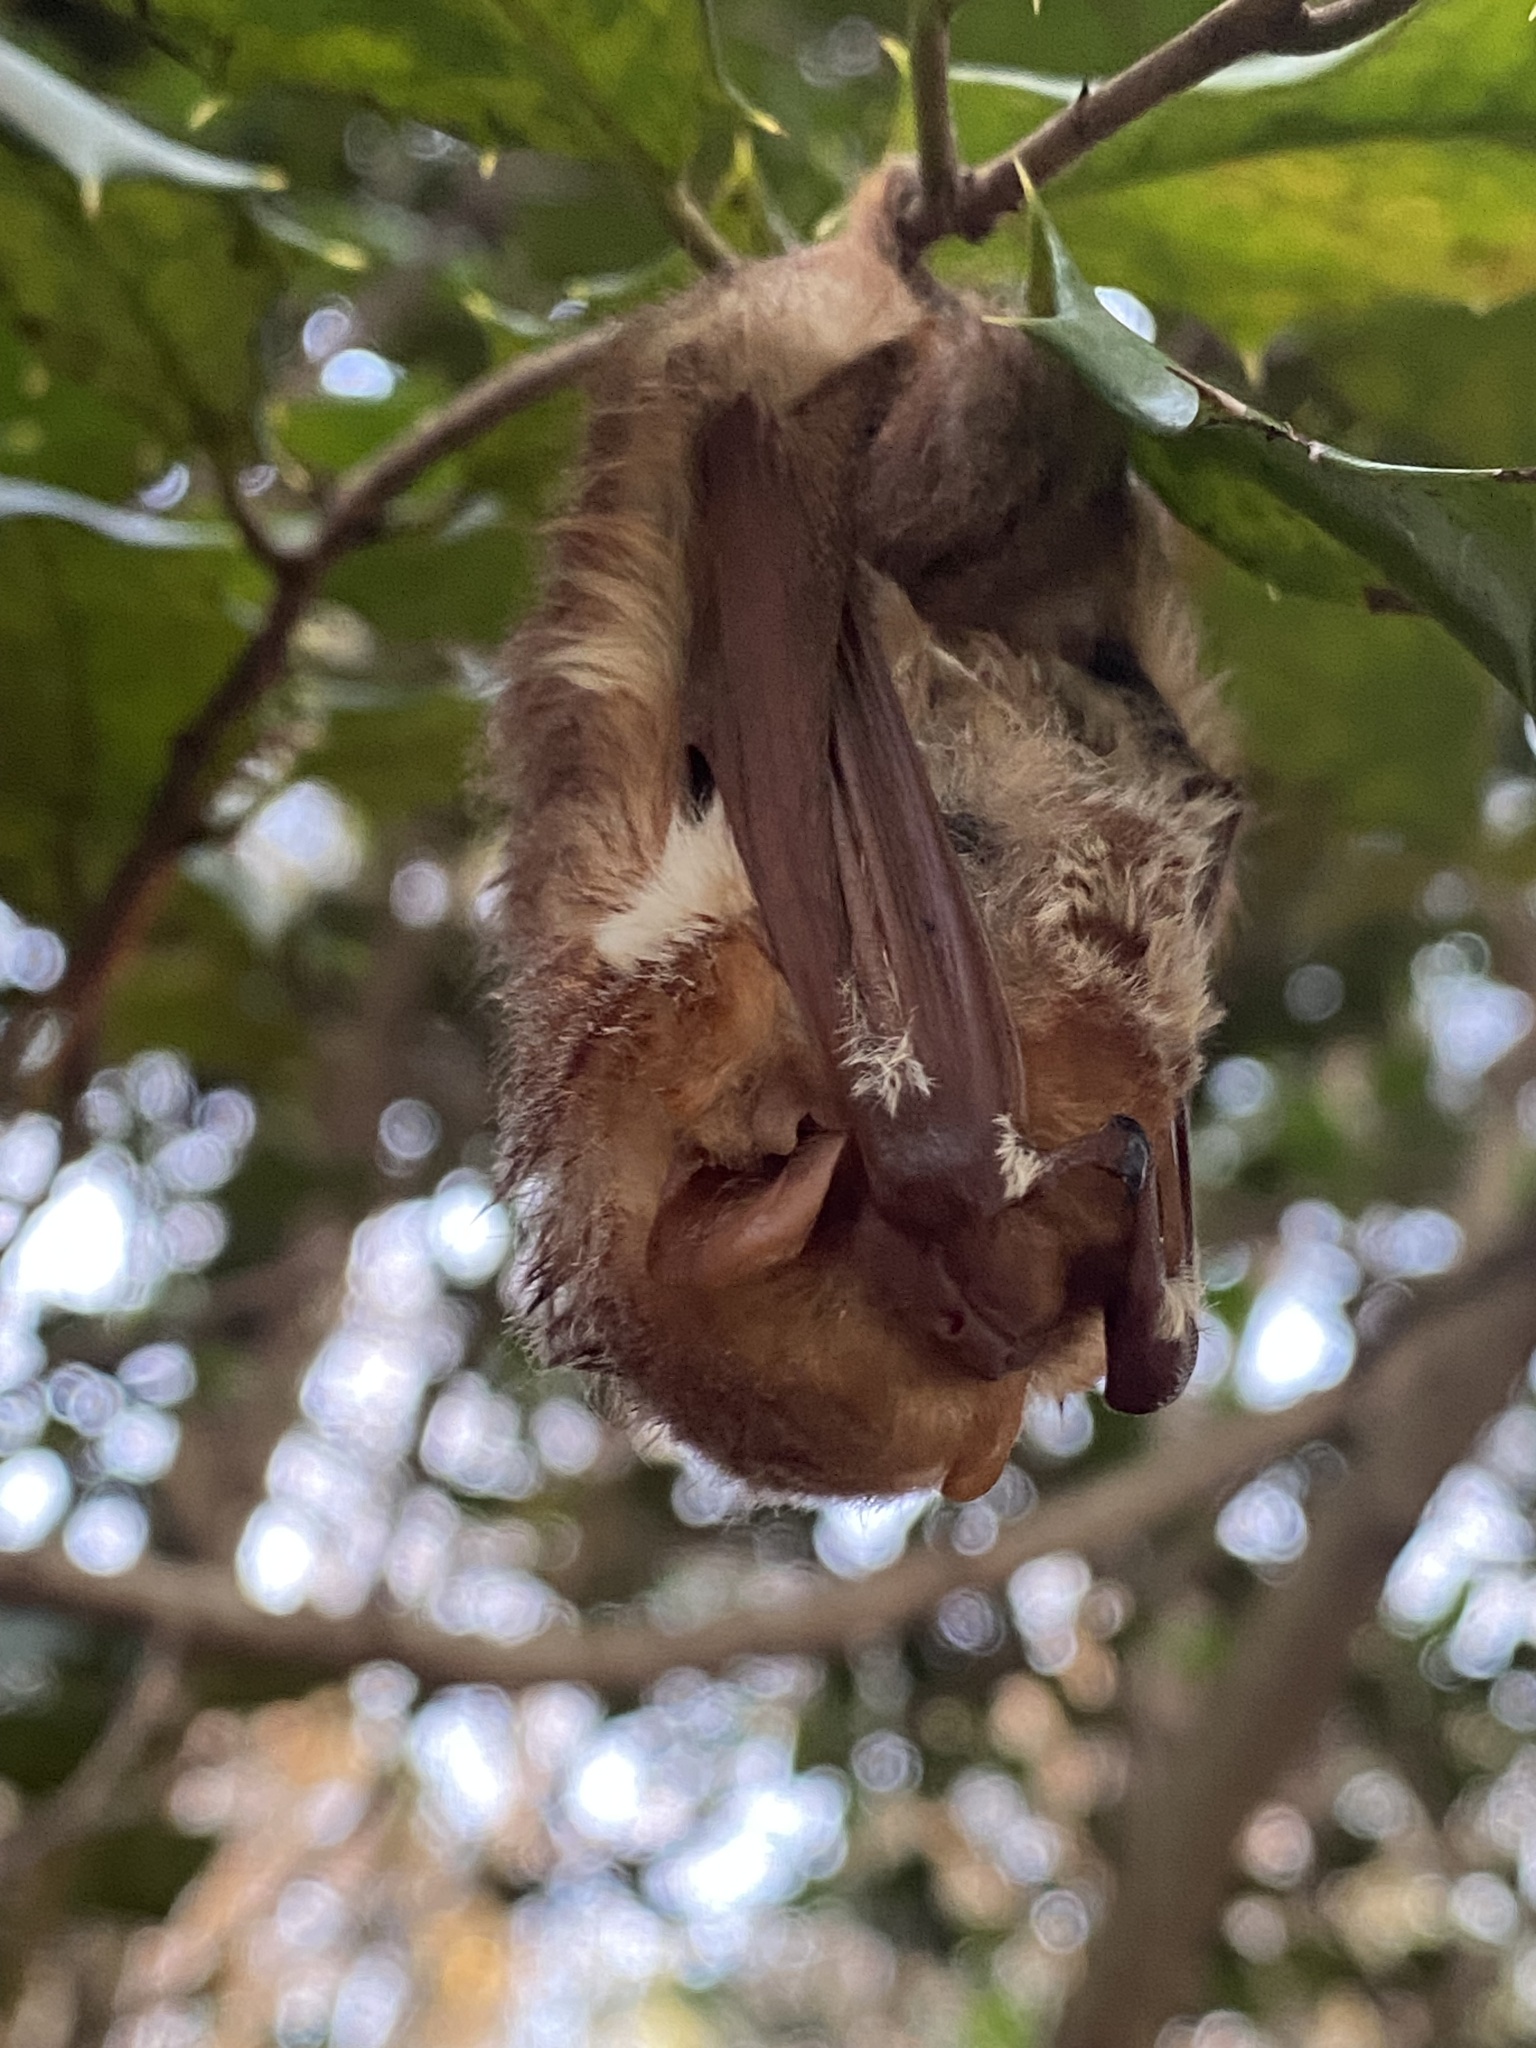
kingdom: Animalia
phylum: Chordata
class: Mammalia
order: Chiroptera
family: Vespertilionidae
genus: Lasiurus
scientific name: Lasiurus borealis
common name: Eastern red bat
